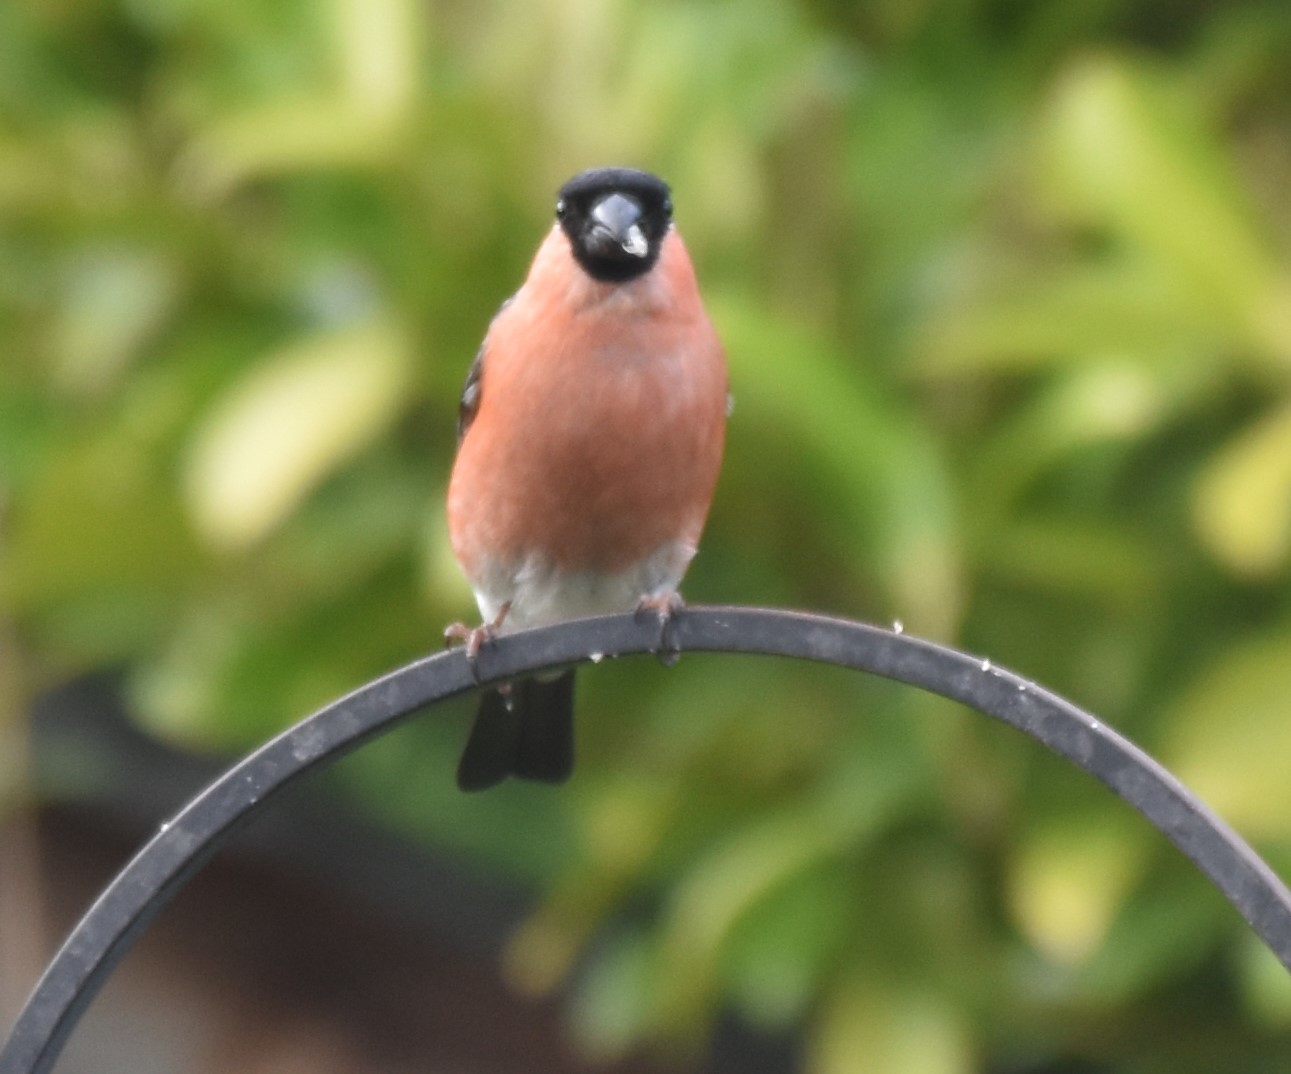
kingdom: Animalia
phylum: Chordata
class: Aves
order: Passeriformes
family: Fringillidae
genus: Pyrrhula
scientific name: Pyrrhula pyrrhula
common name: Eurasian bullfinch
